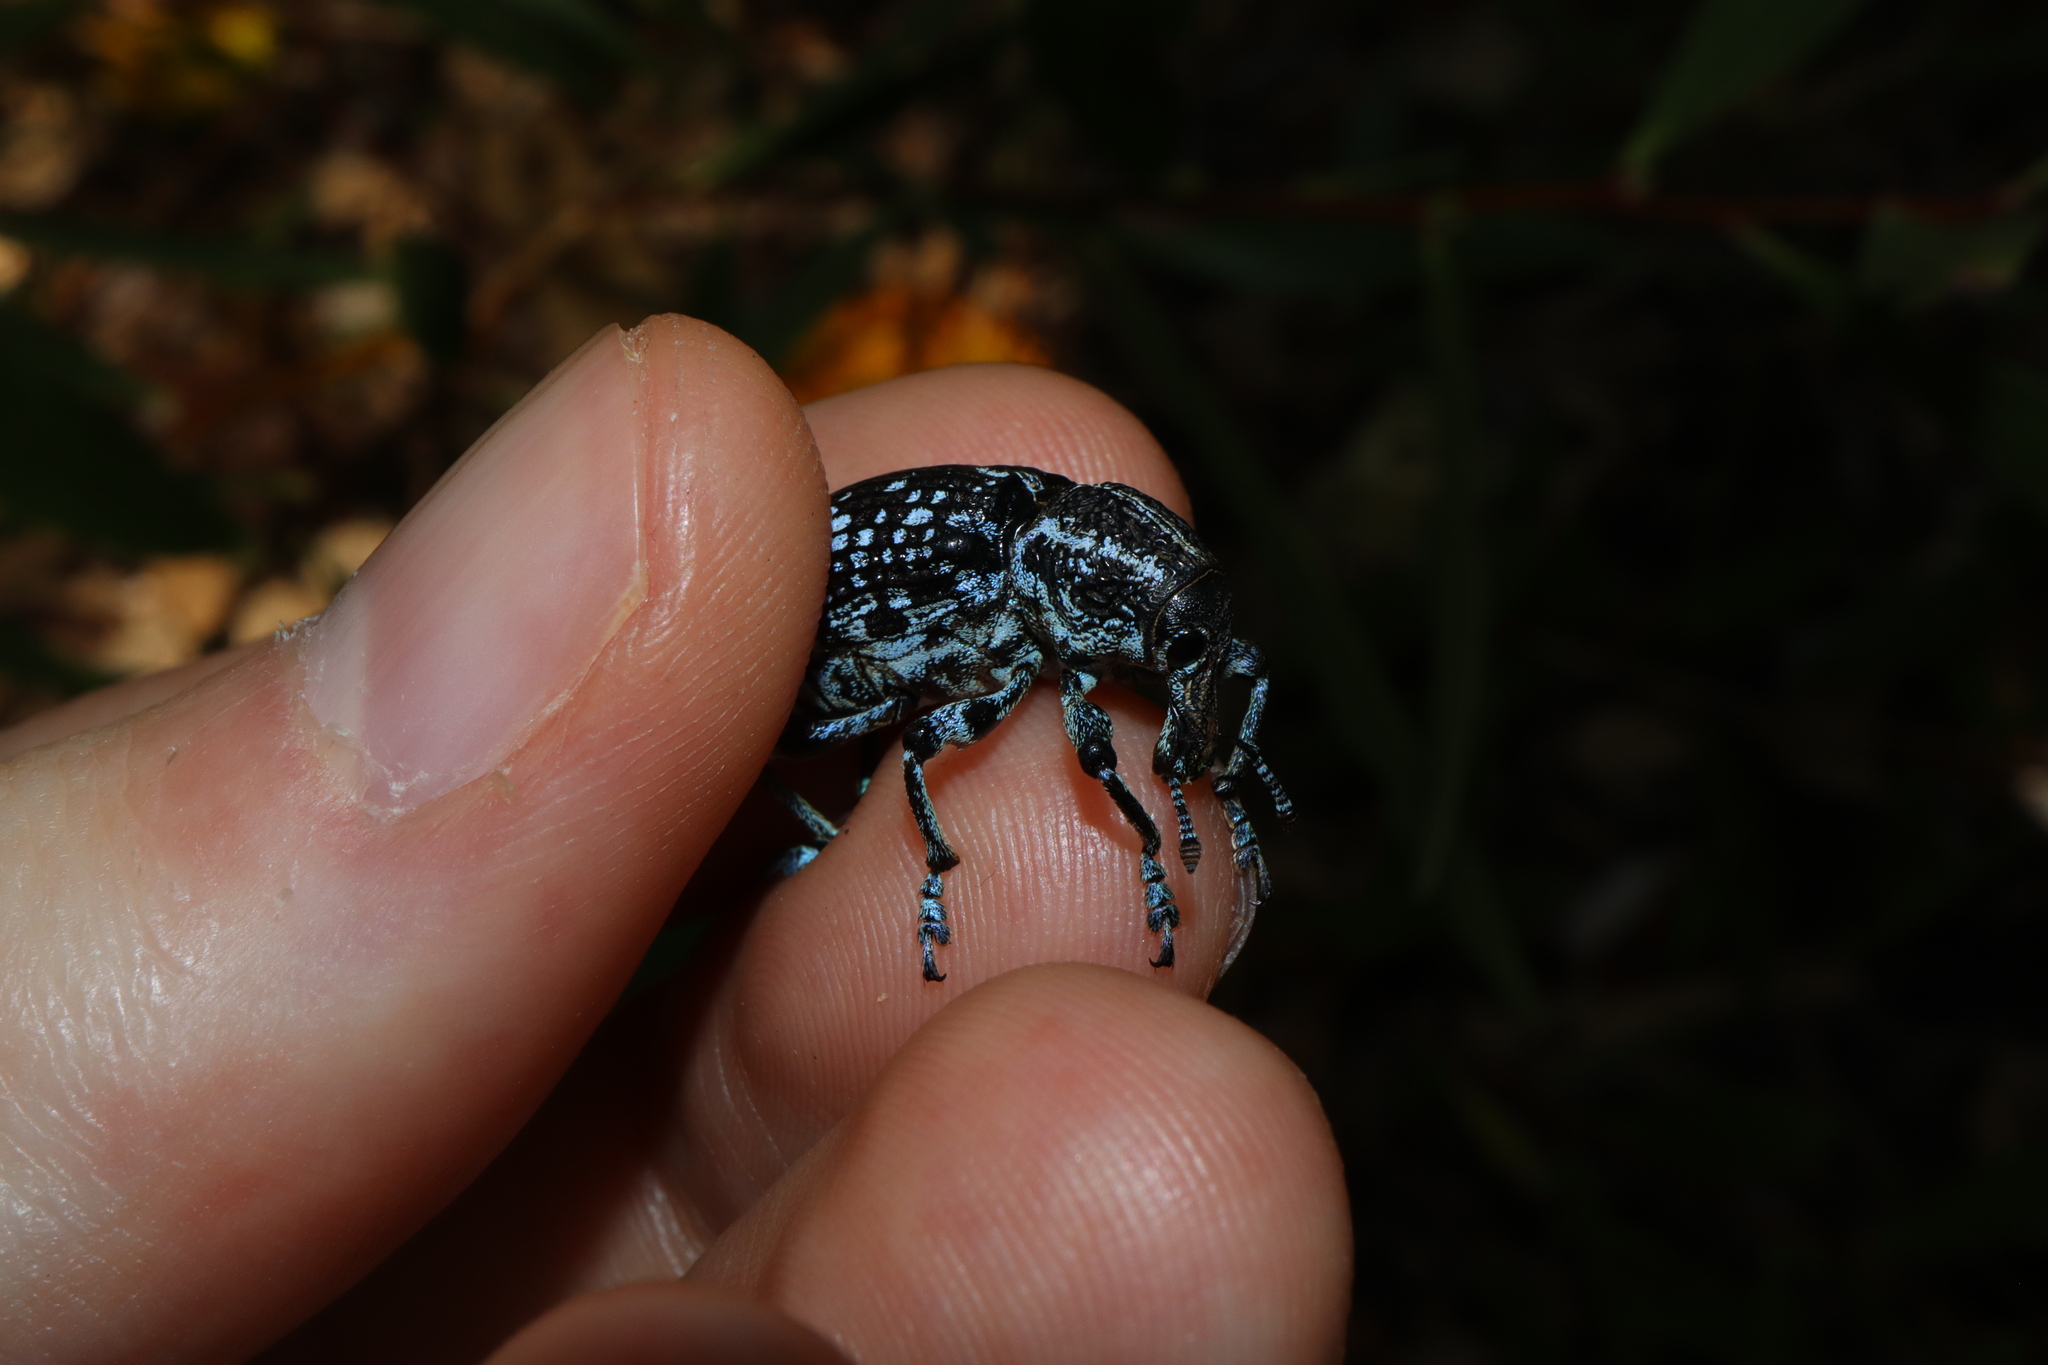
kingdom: Animalia
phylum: Arthropoda
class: Insecta
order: Coleoptera
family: Curculionidae
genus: Chrysolopus
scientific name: Chrysolopus spectabilis
